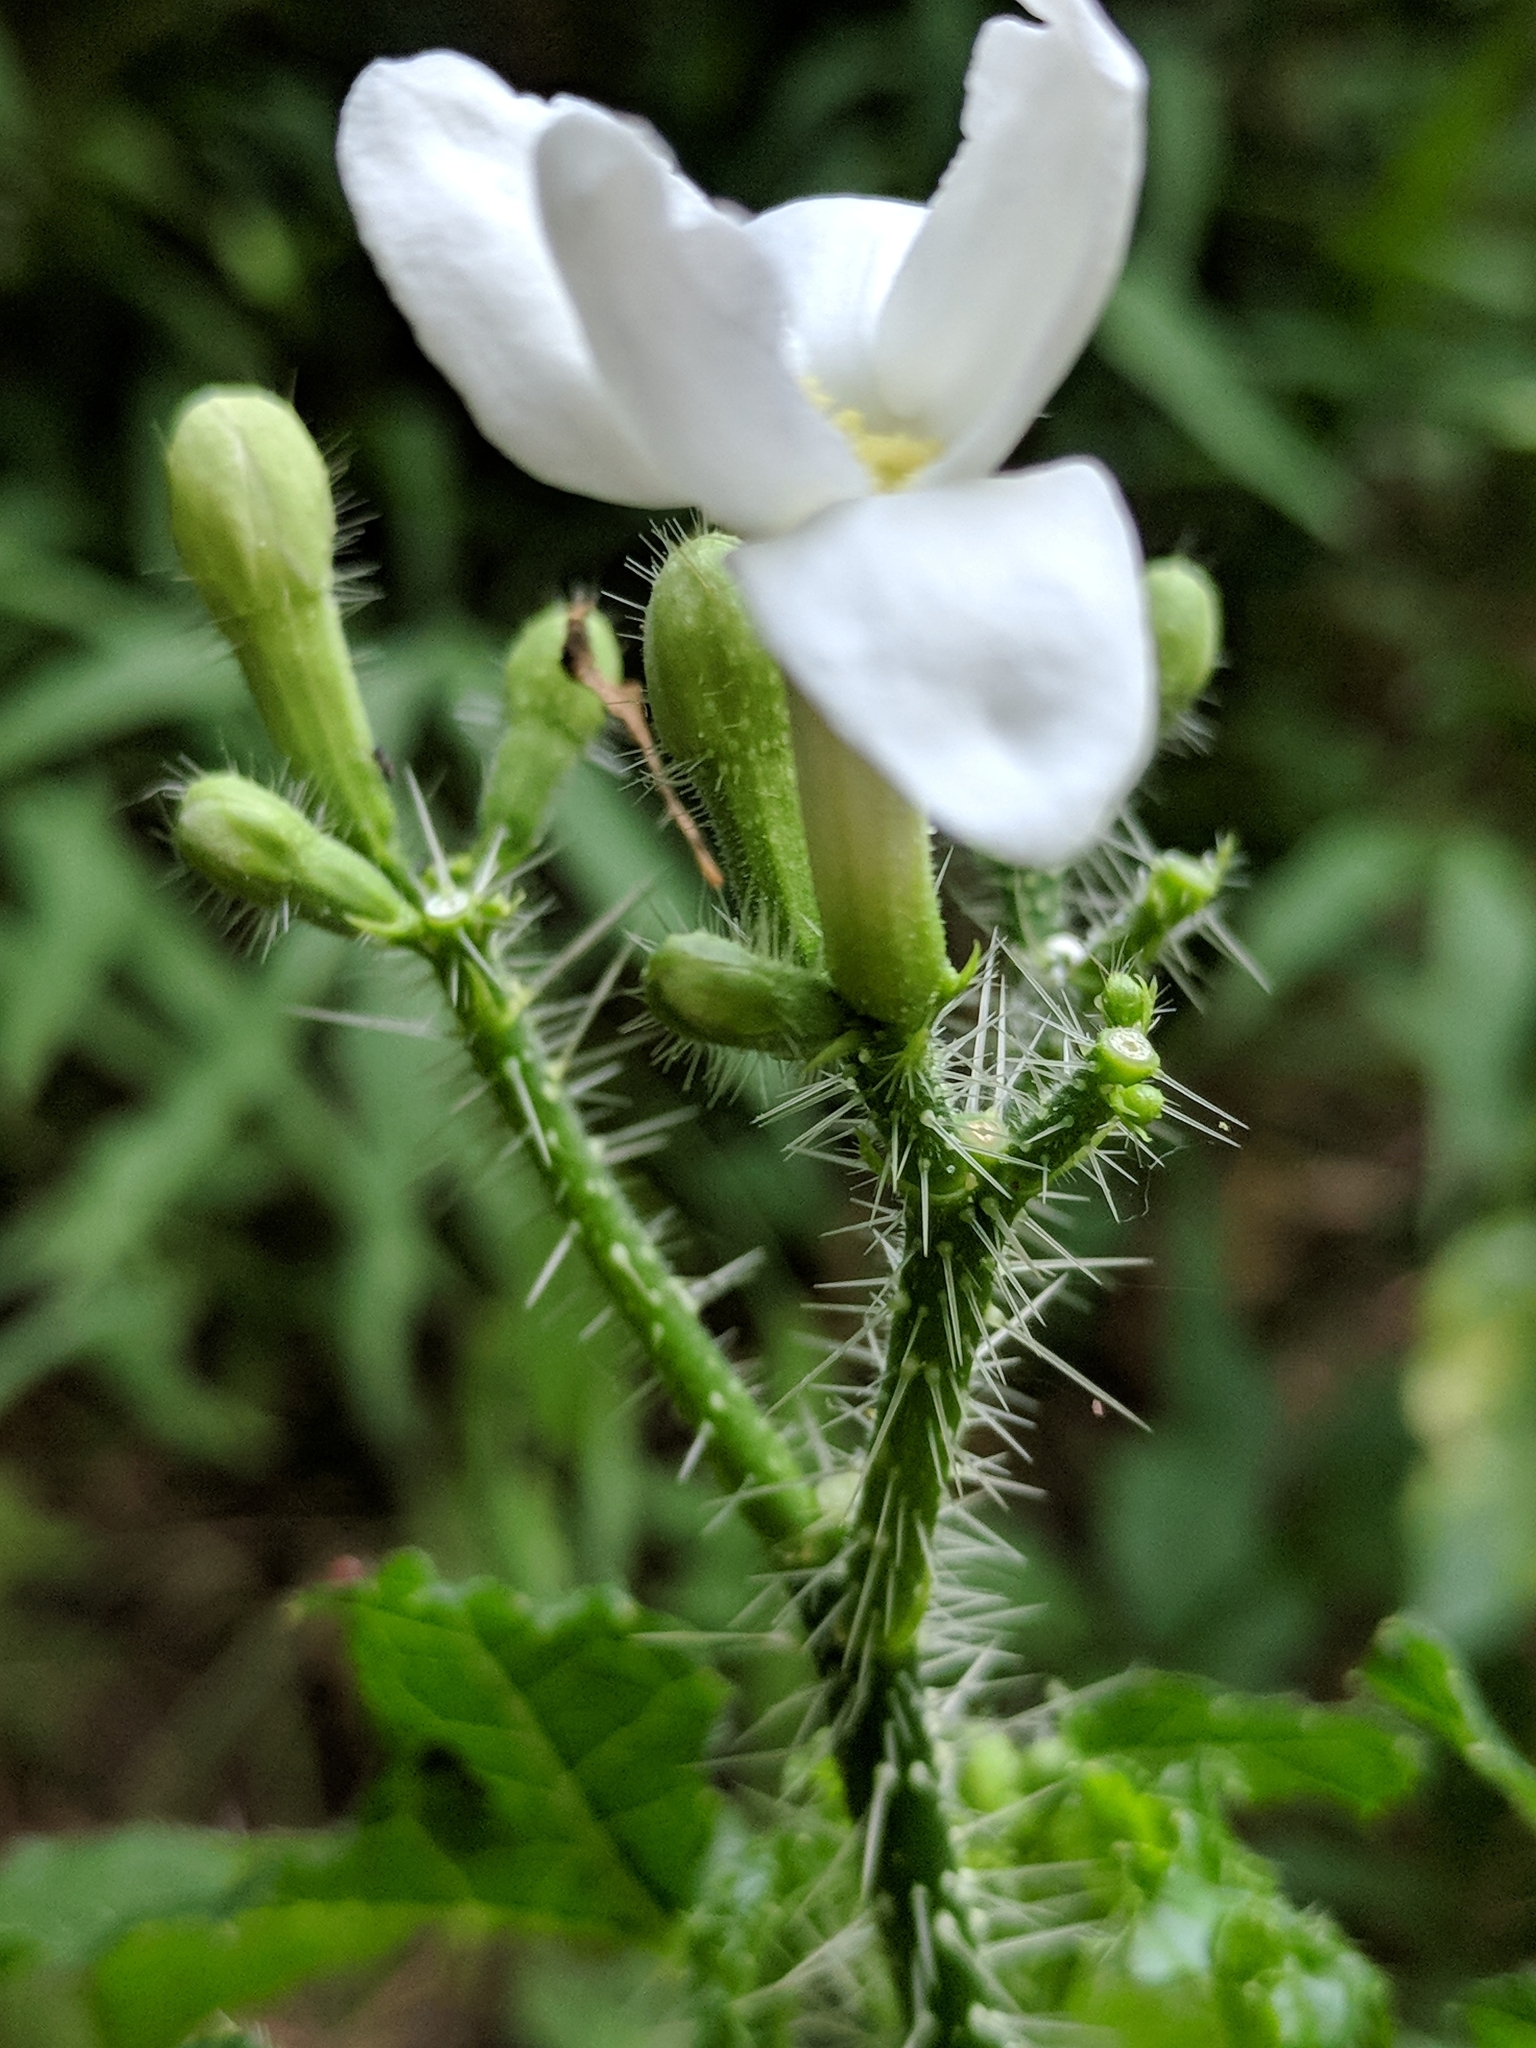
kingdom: Plantae
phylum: Tracheophyta
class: Magnoliopsida
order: Malpighiales
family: Euphorbiaceae
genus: Cnidoscolus
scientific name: Cnidoscolus texanus
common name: Texas bull-nettle
